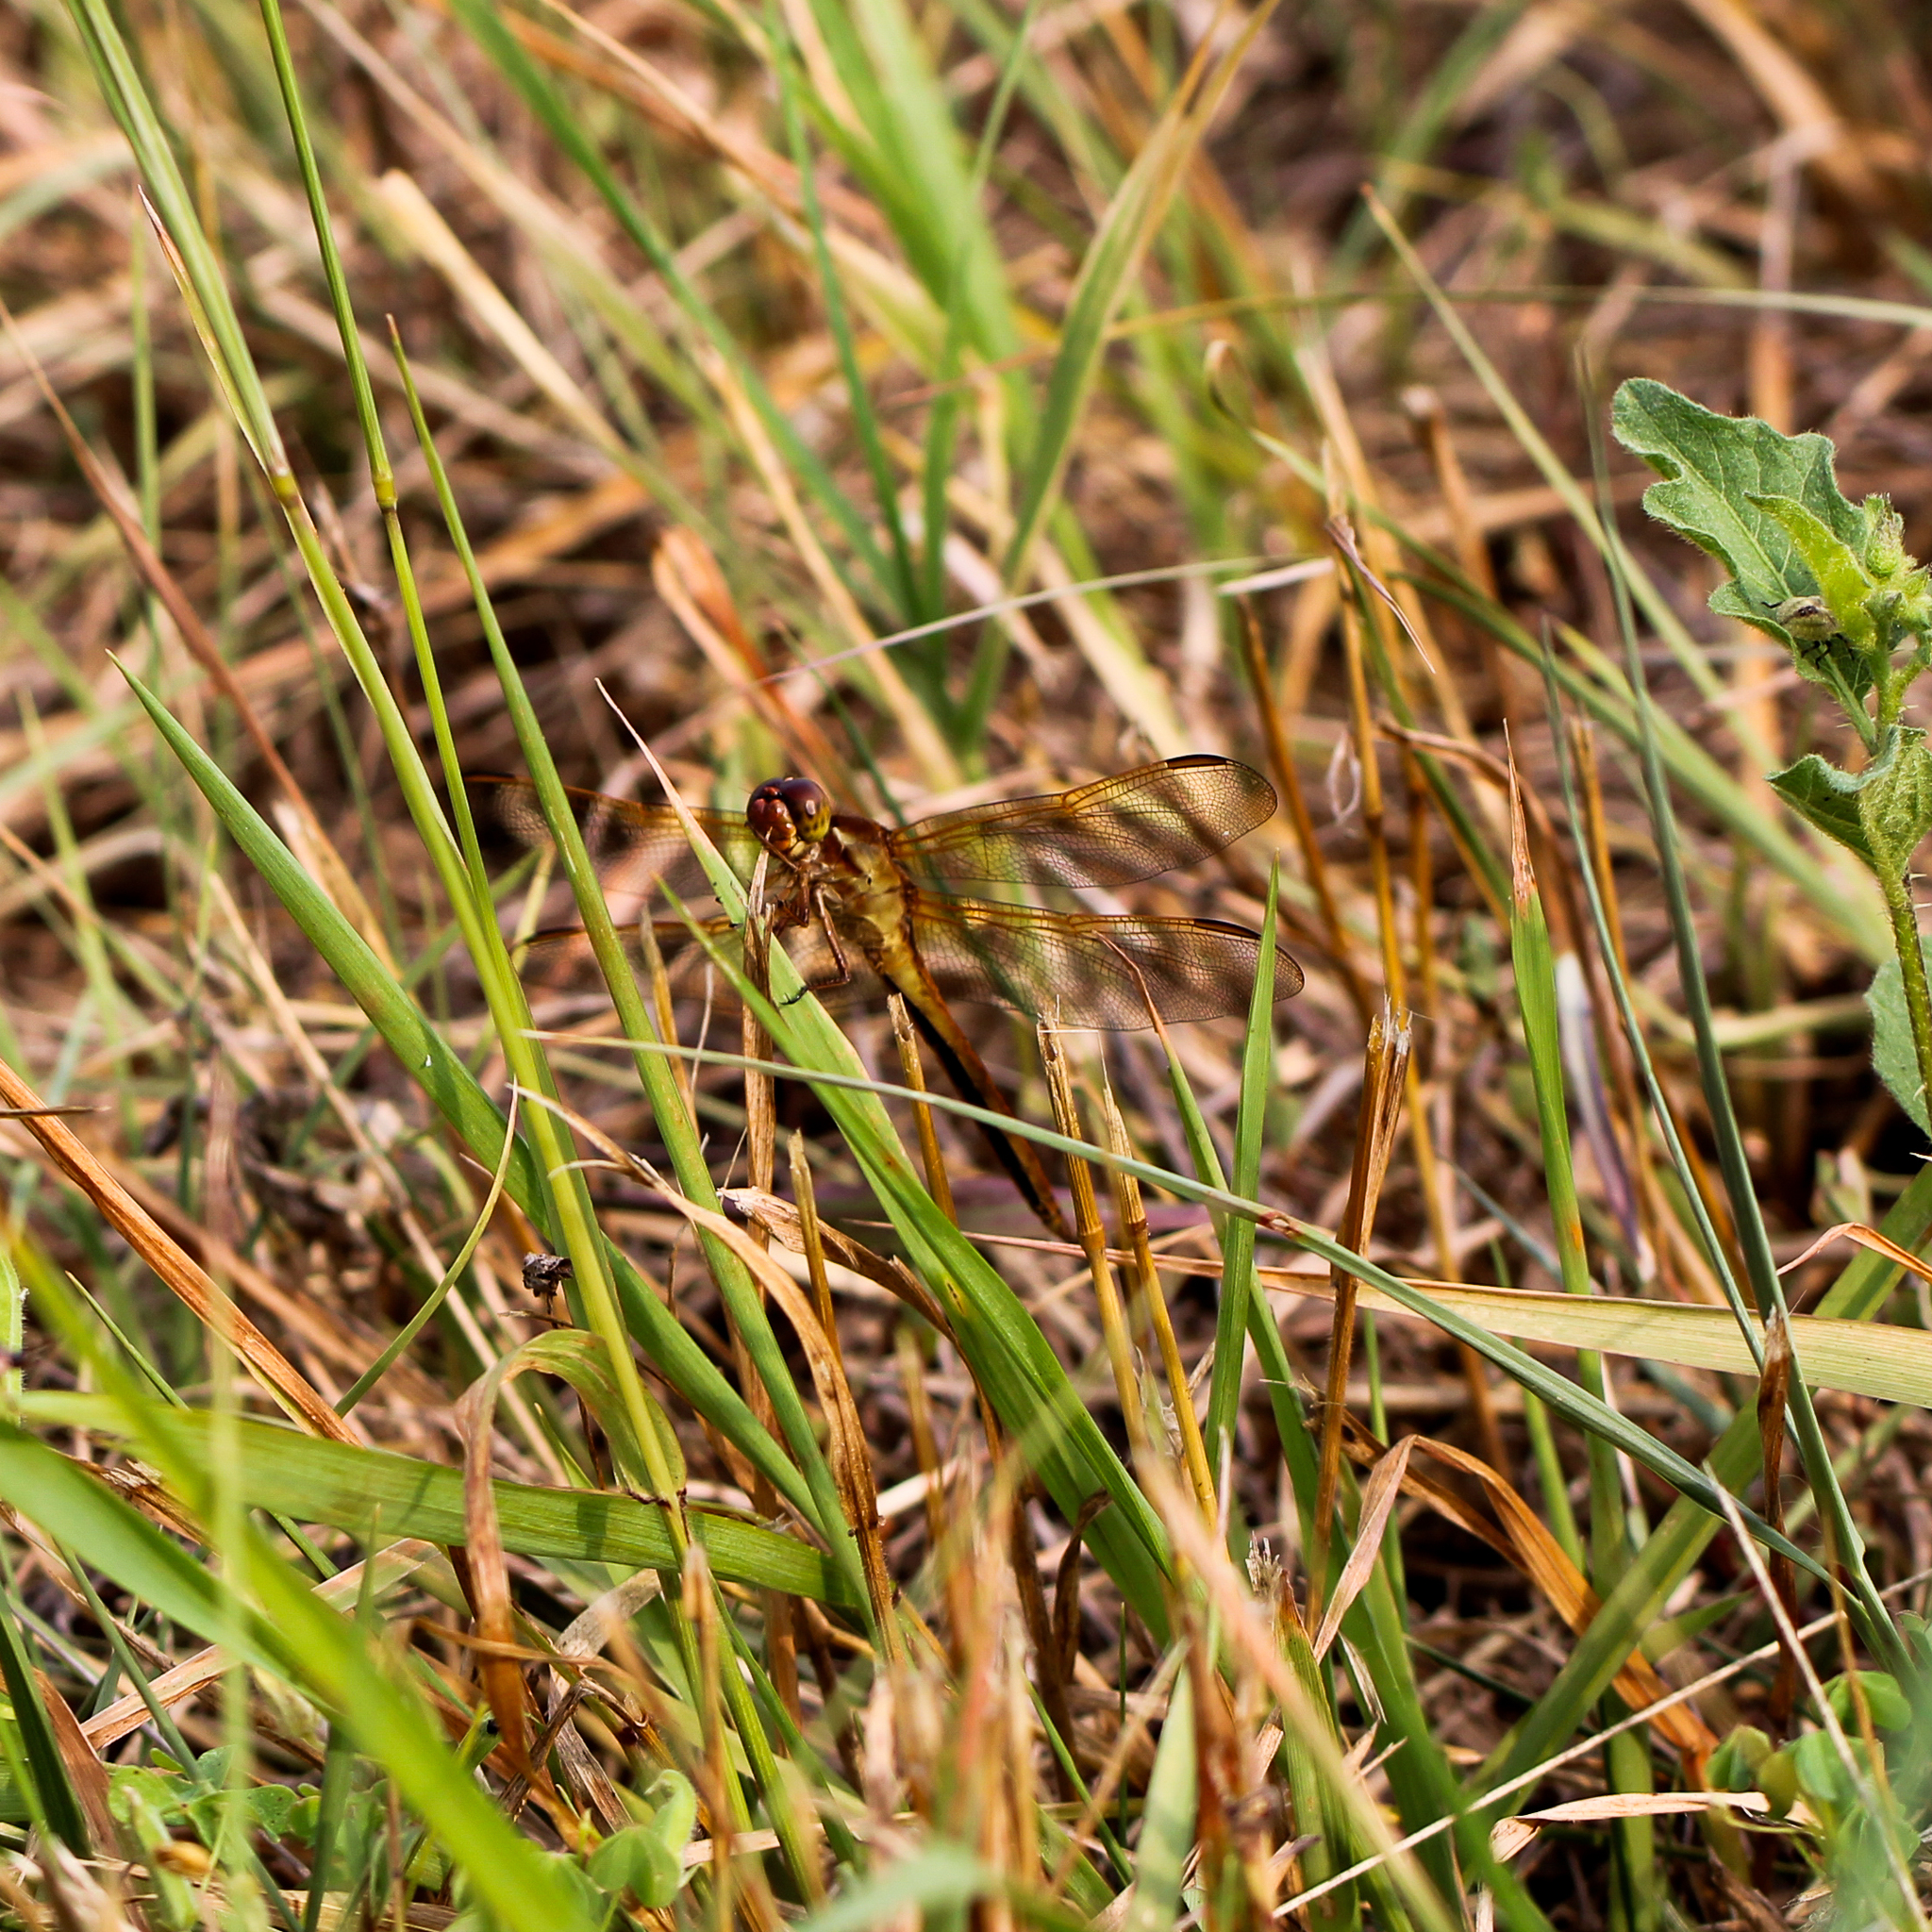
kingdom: Animalia
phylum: Arthropoda
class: Insecta
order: Odonata
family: Libellulidae
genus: Libellula
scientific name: Libellula needhami
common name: Needham's skimmer
